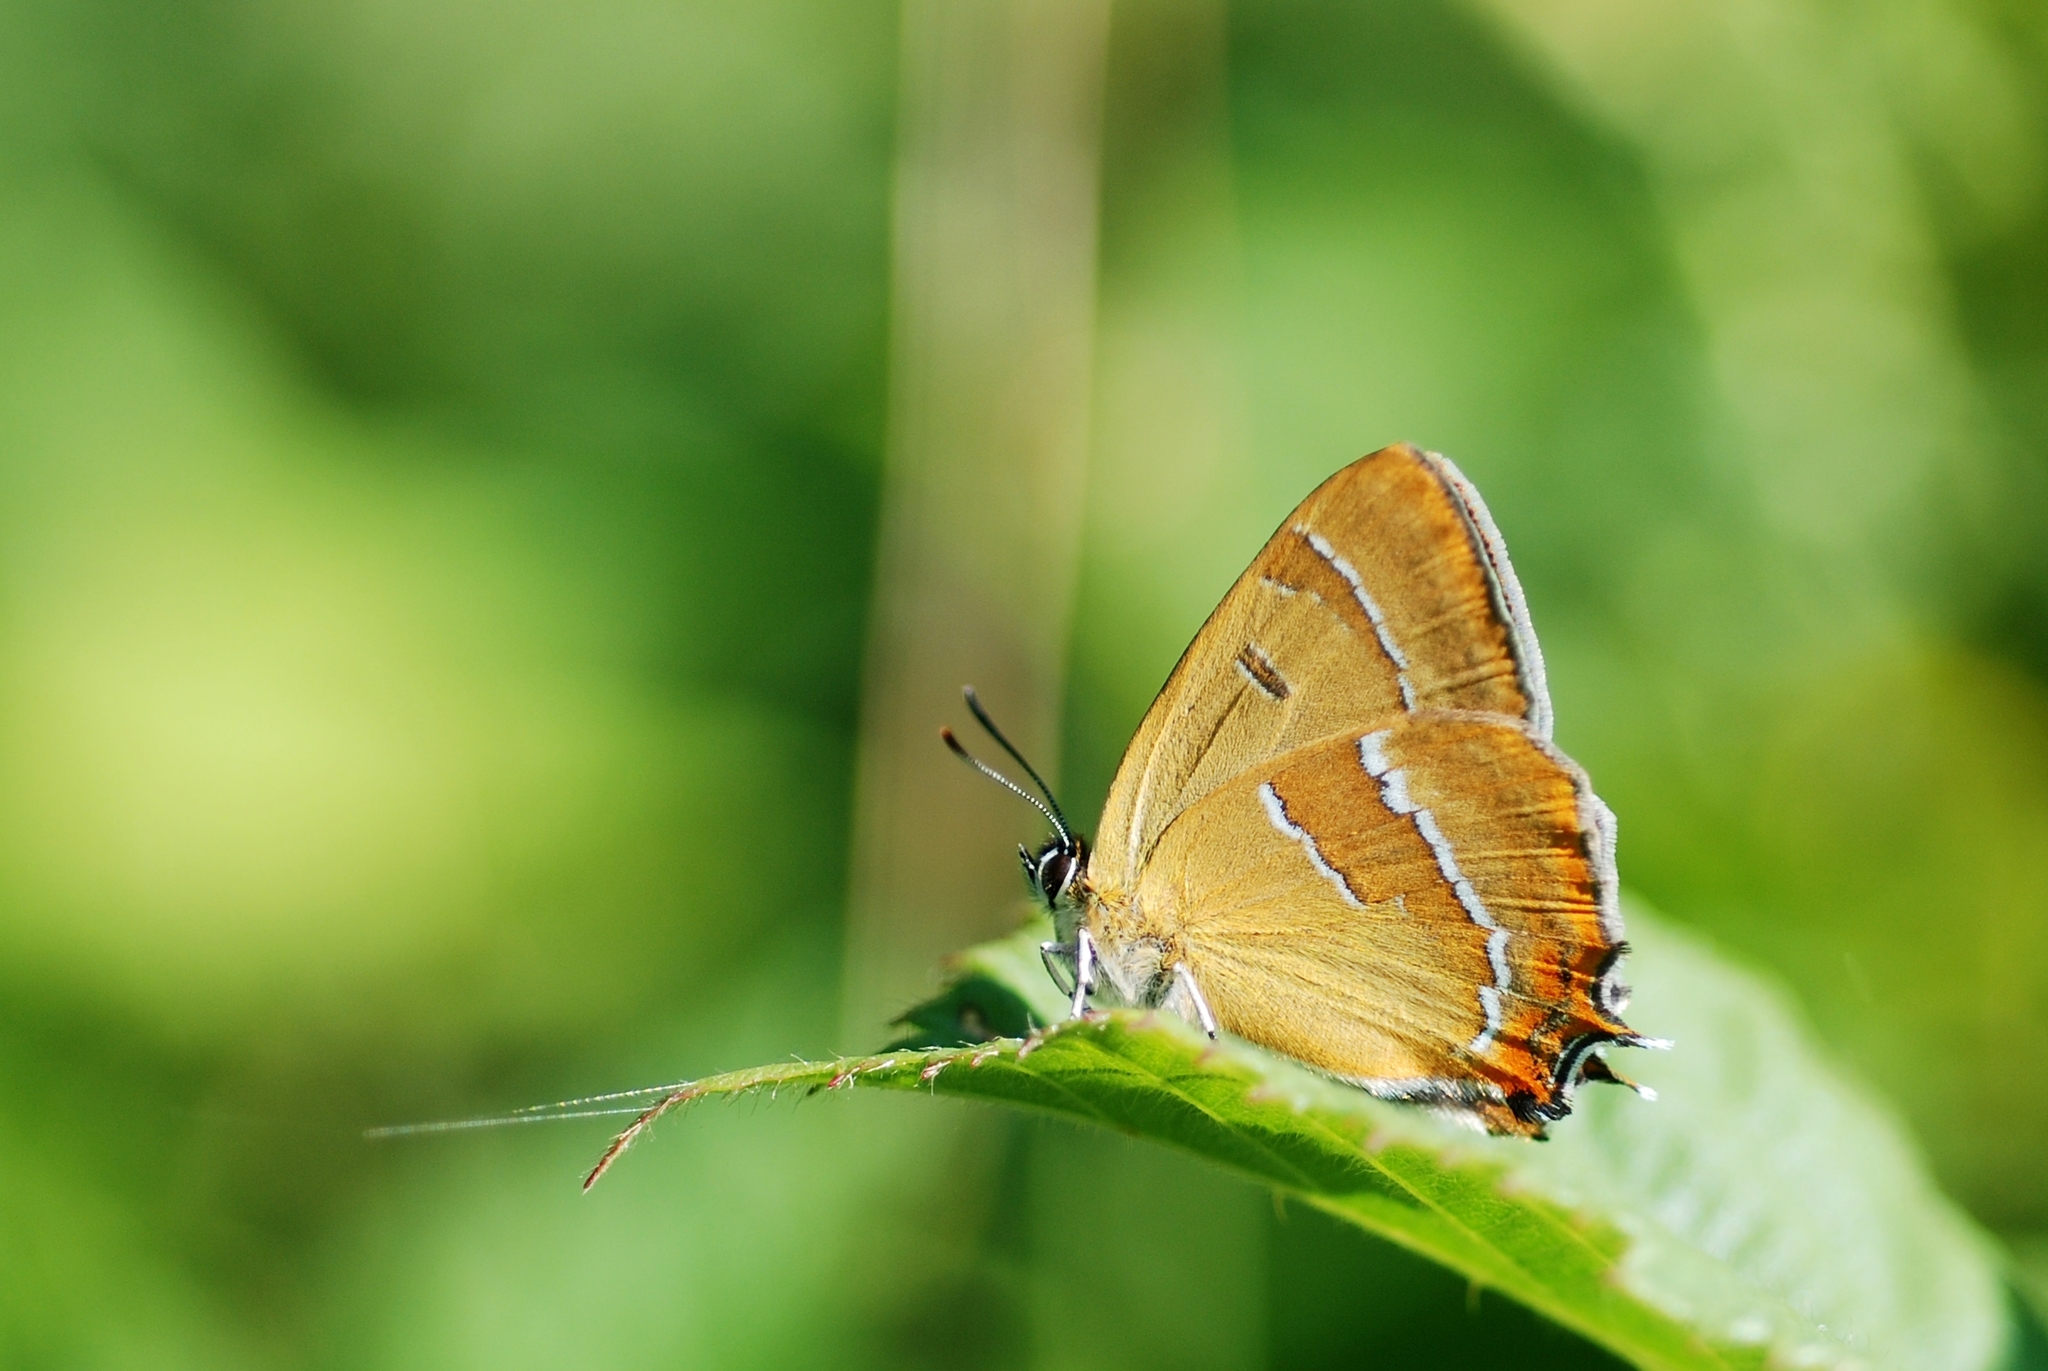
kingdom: Animalia
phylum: Arthropoda
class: Insecta
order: Lepidoptera
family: Lycaenidae
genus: Thecla
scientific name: Thecla betulae
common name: Brown hairstreak
